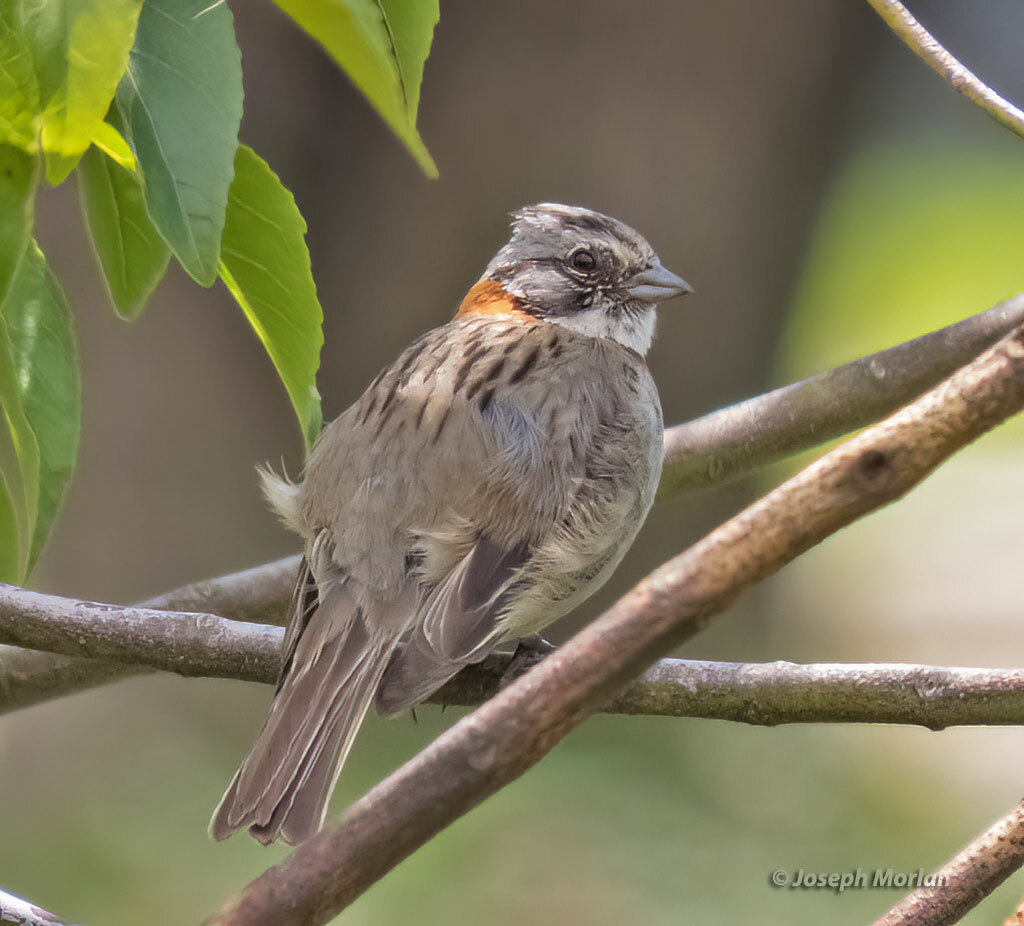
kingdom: Animalia
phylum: Chordata
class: Aves
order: Passeriformes
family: Passerellidae
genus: Zonotrichia
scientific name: Zonotrichia capensis
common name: Rufous-collared sparrow
